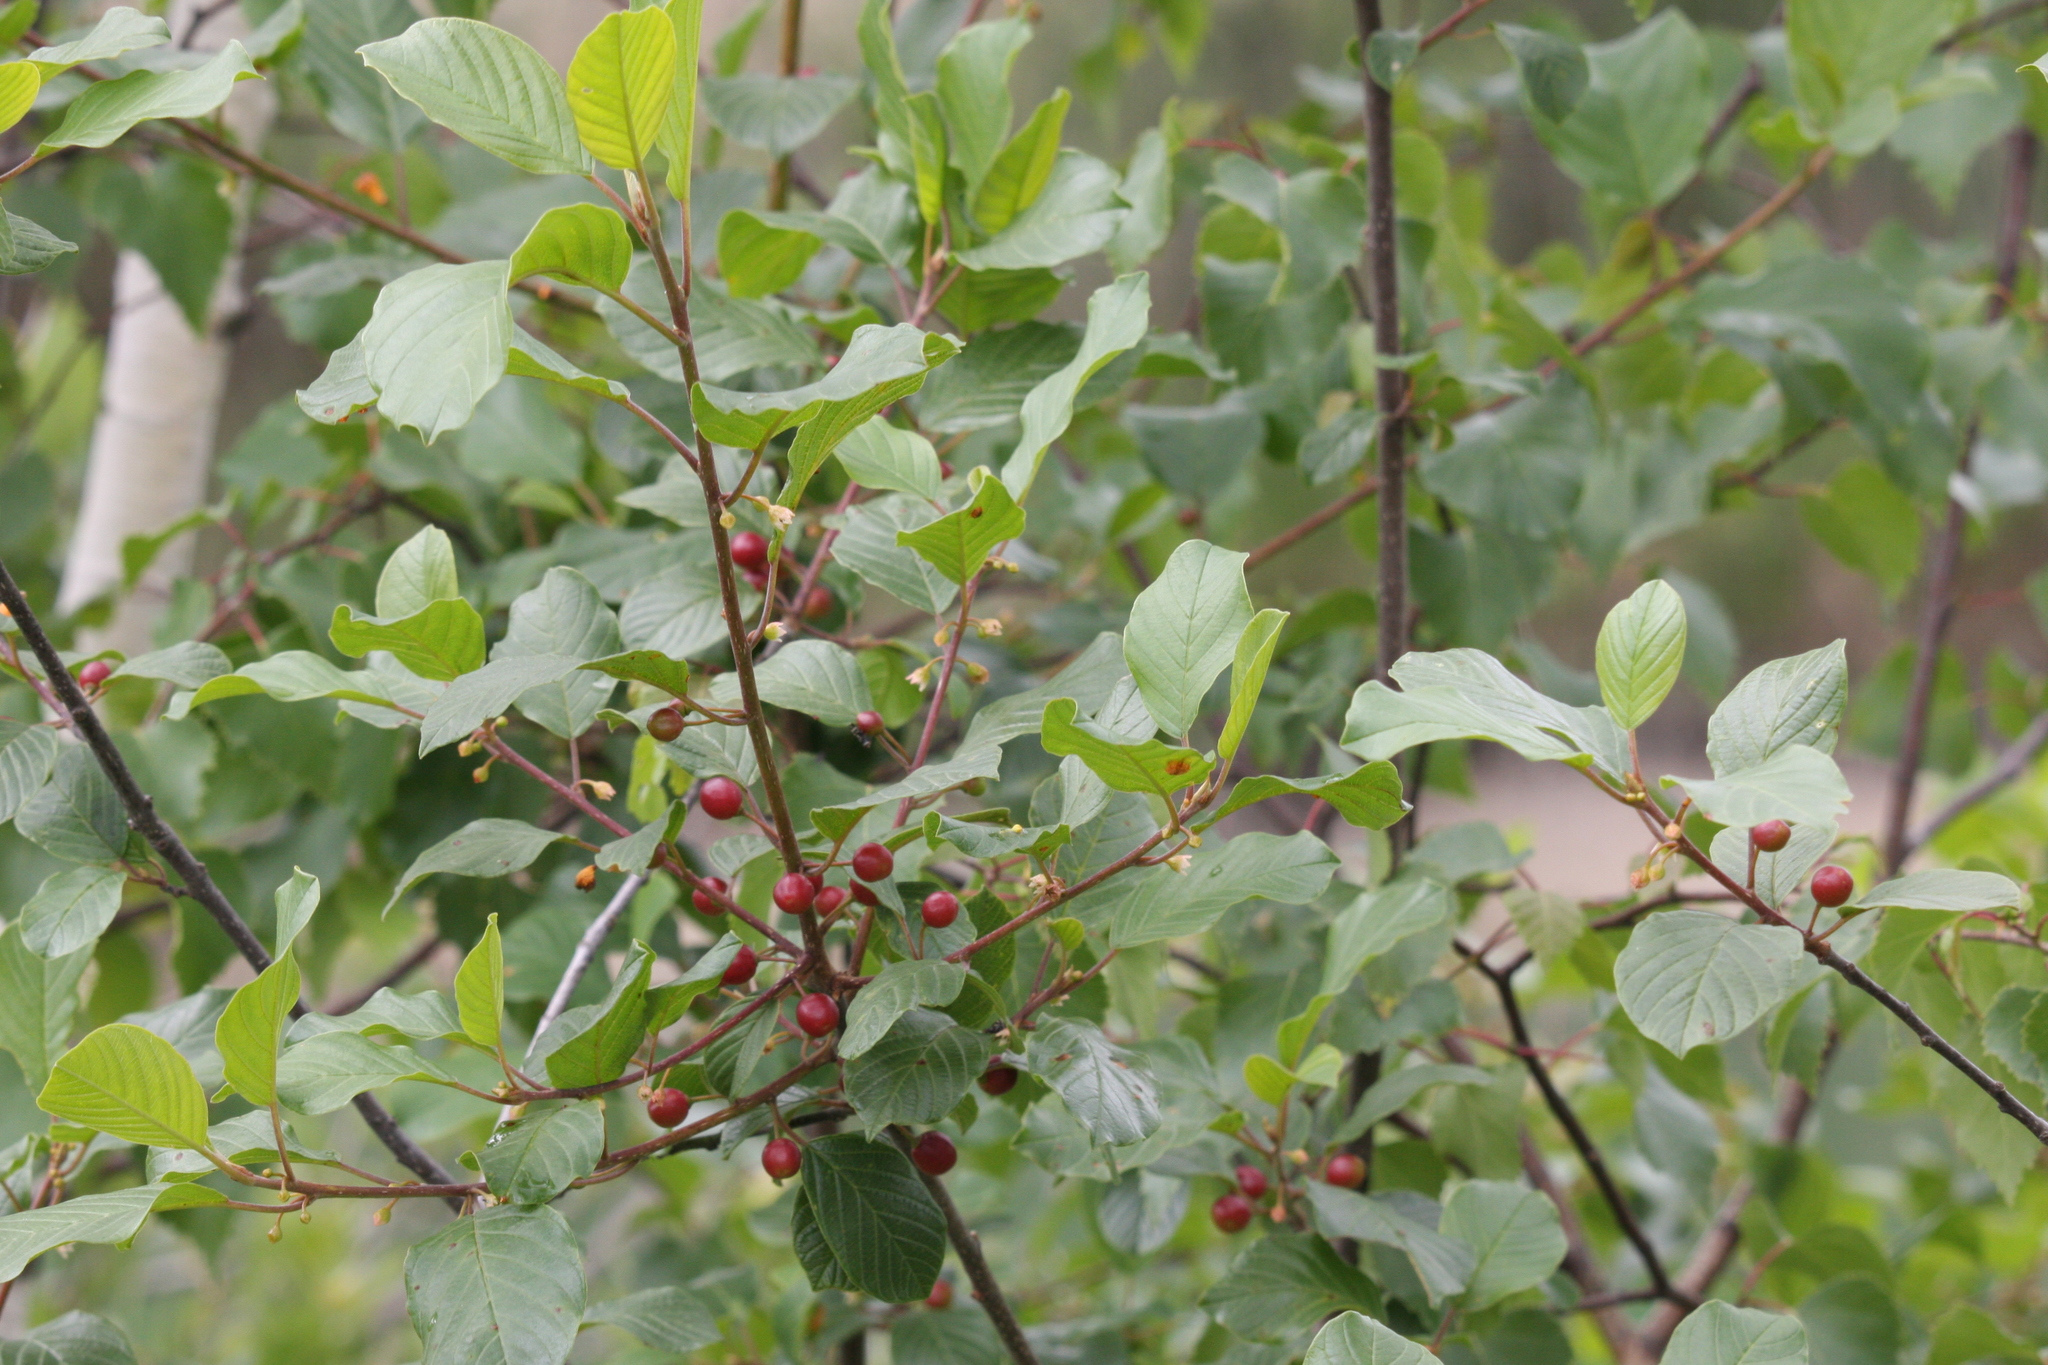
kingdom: Plantae
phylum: Tracheophyta
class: Magnoliopsida
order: Rosales
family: Rhamnaceae
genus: Frangula
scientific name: Frangula alnus
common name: Alder buckthorn
